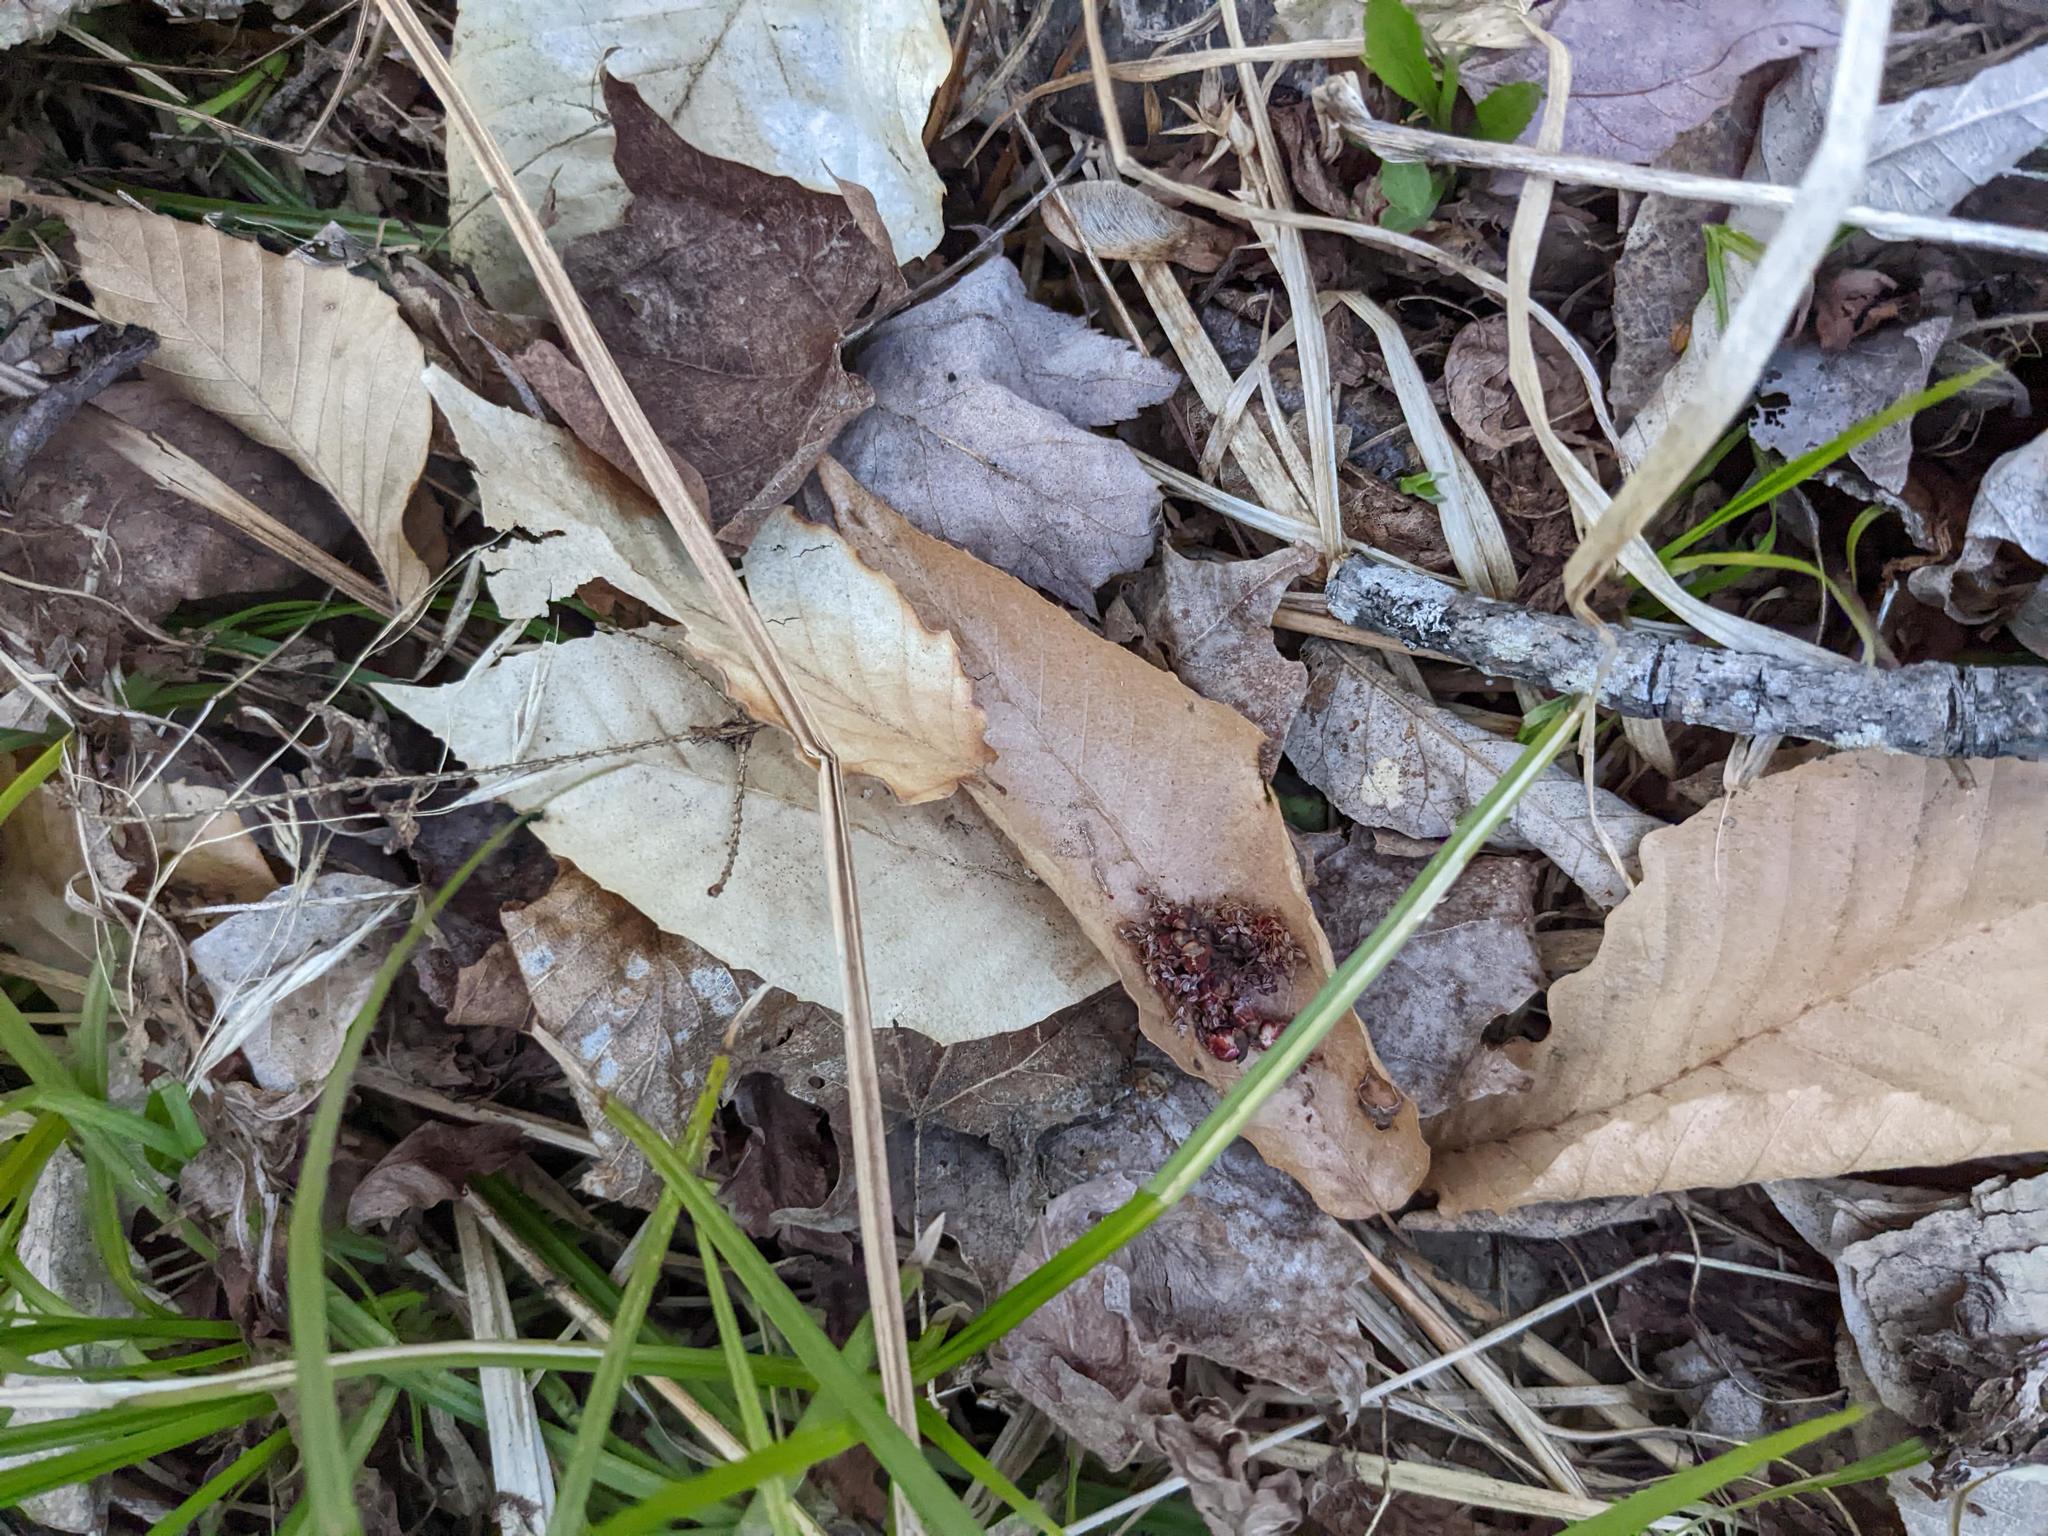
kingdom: Plantae
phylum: Tracheophyta
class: Magnoliopsida
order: Fagales
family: Fagaceae
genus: Fagus
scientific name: Fagus grandifolia
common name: American beech
